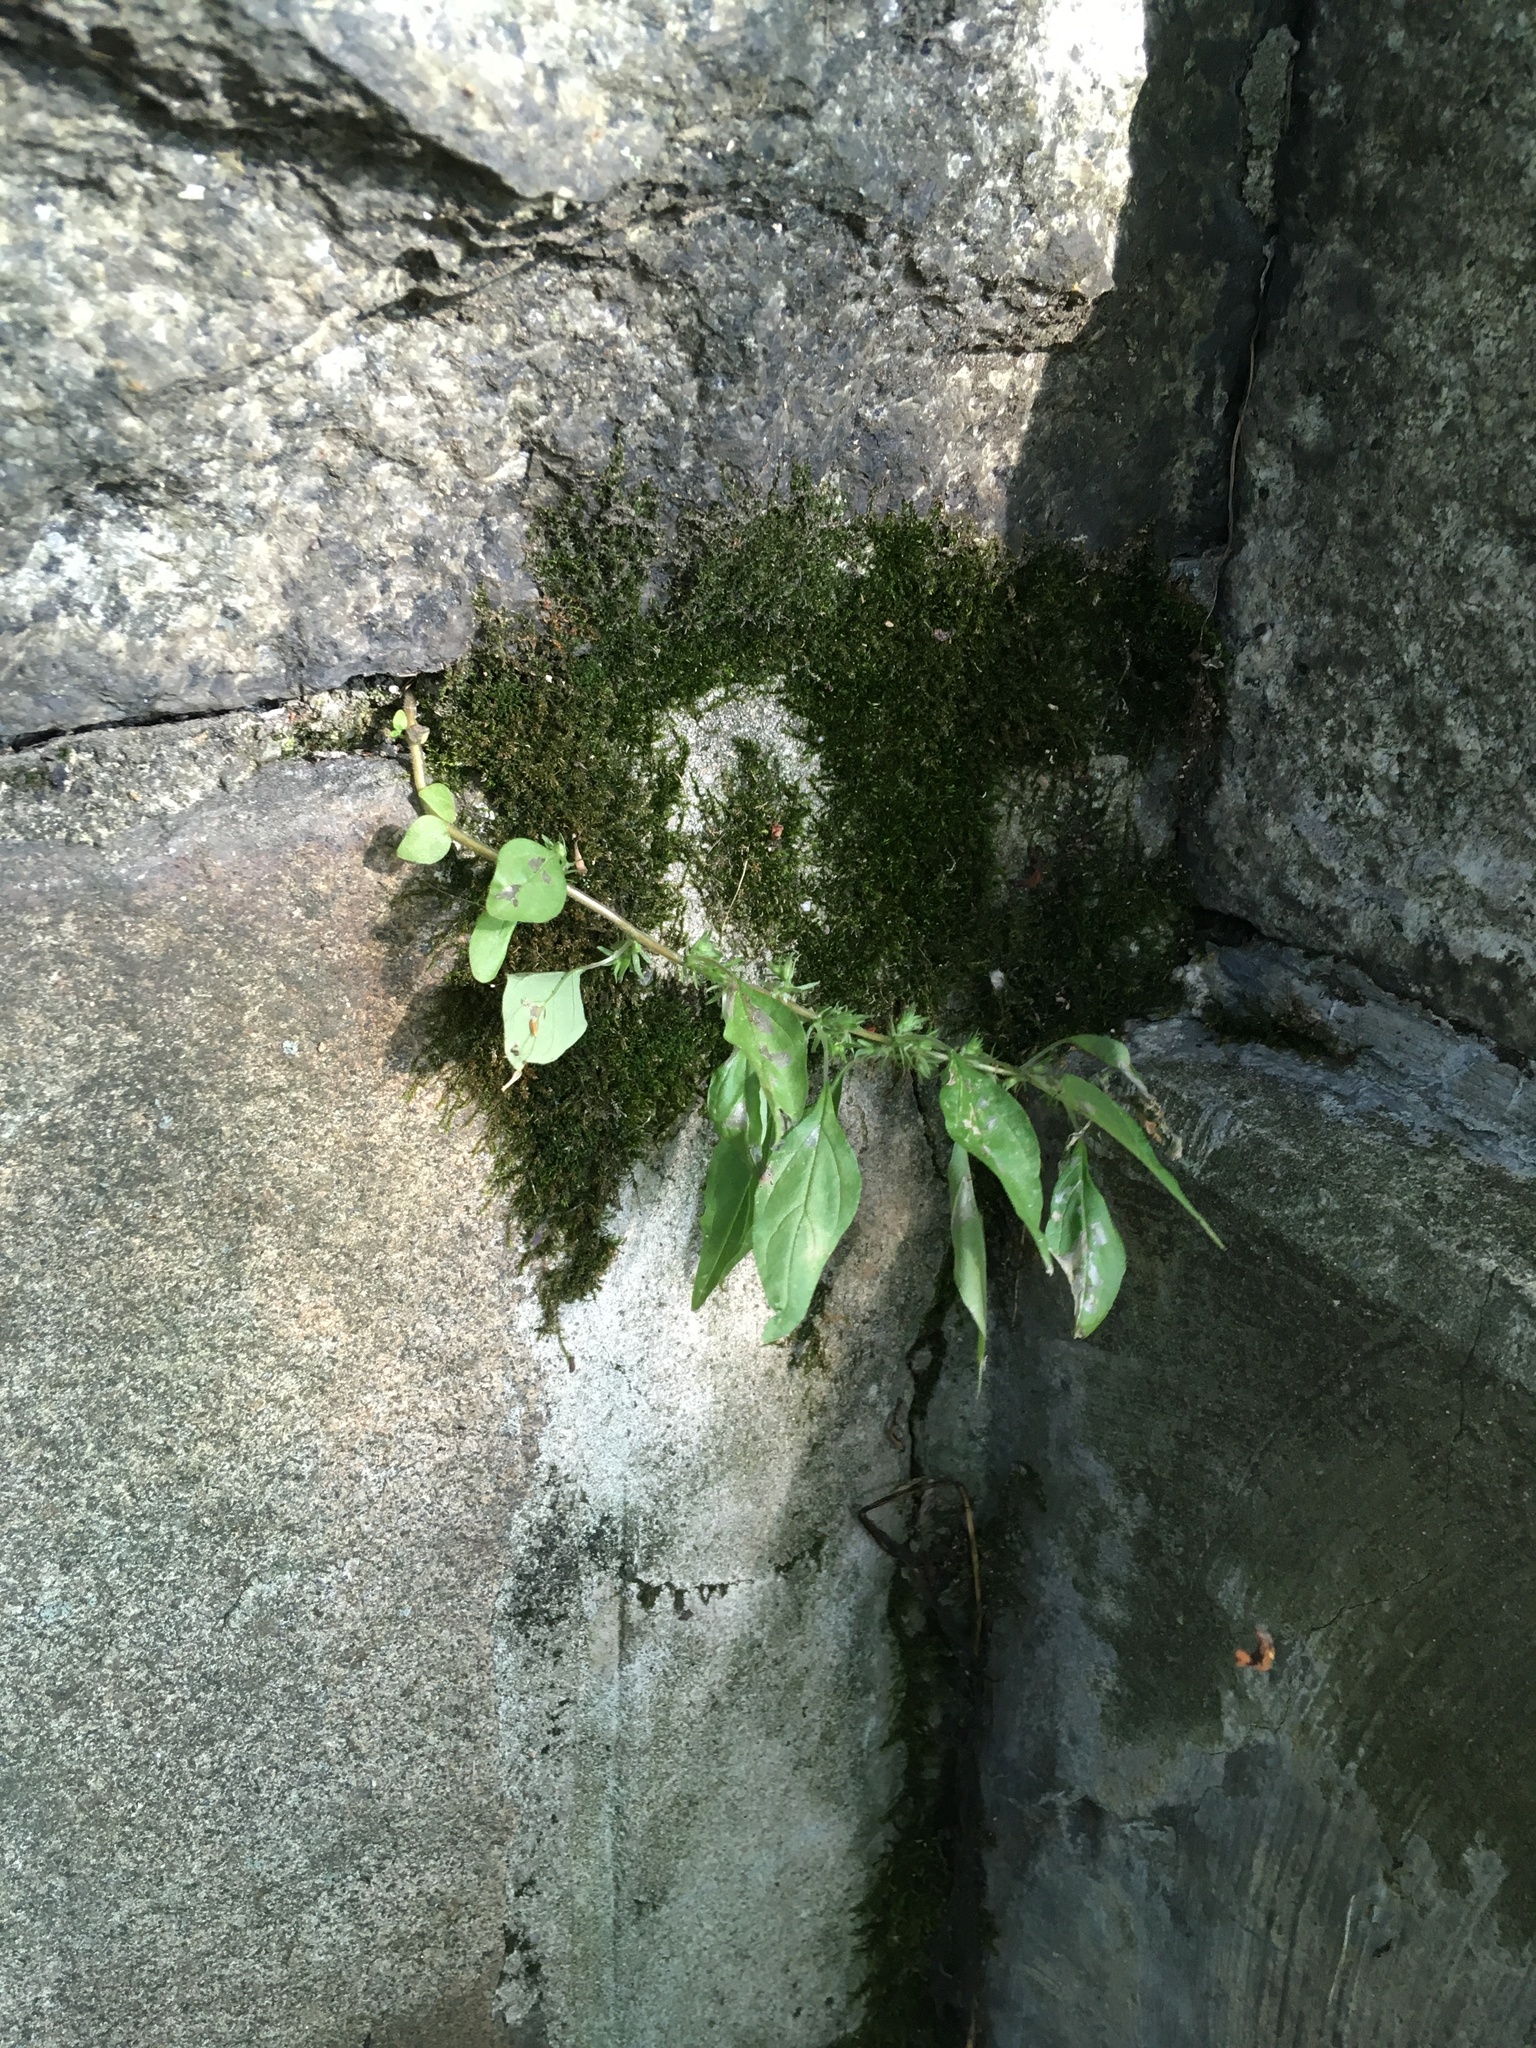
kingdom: Plantae
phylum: Tracheophyta
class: Magnoliopsida
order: Rosales
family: Urticaceae
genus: Parietaria
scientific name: Parietaria pensylvanica
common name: Pennsylvania pellitory
